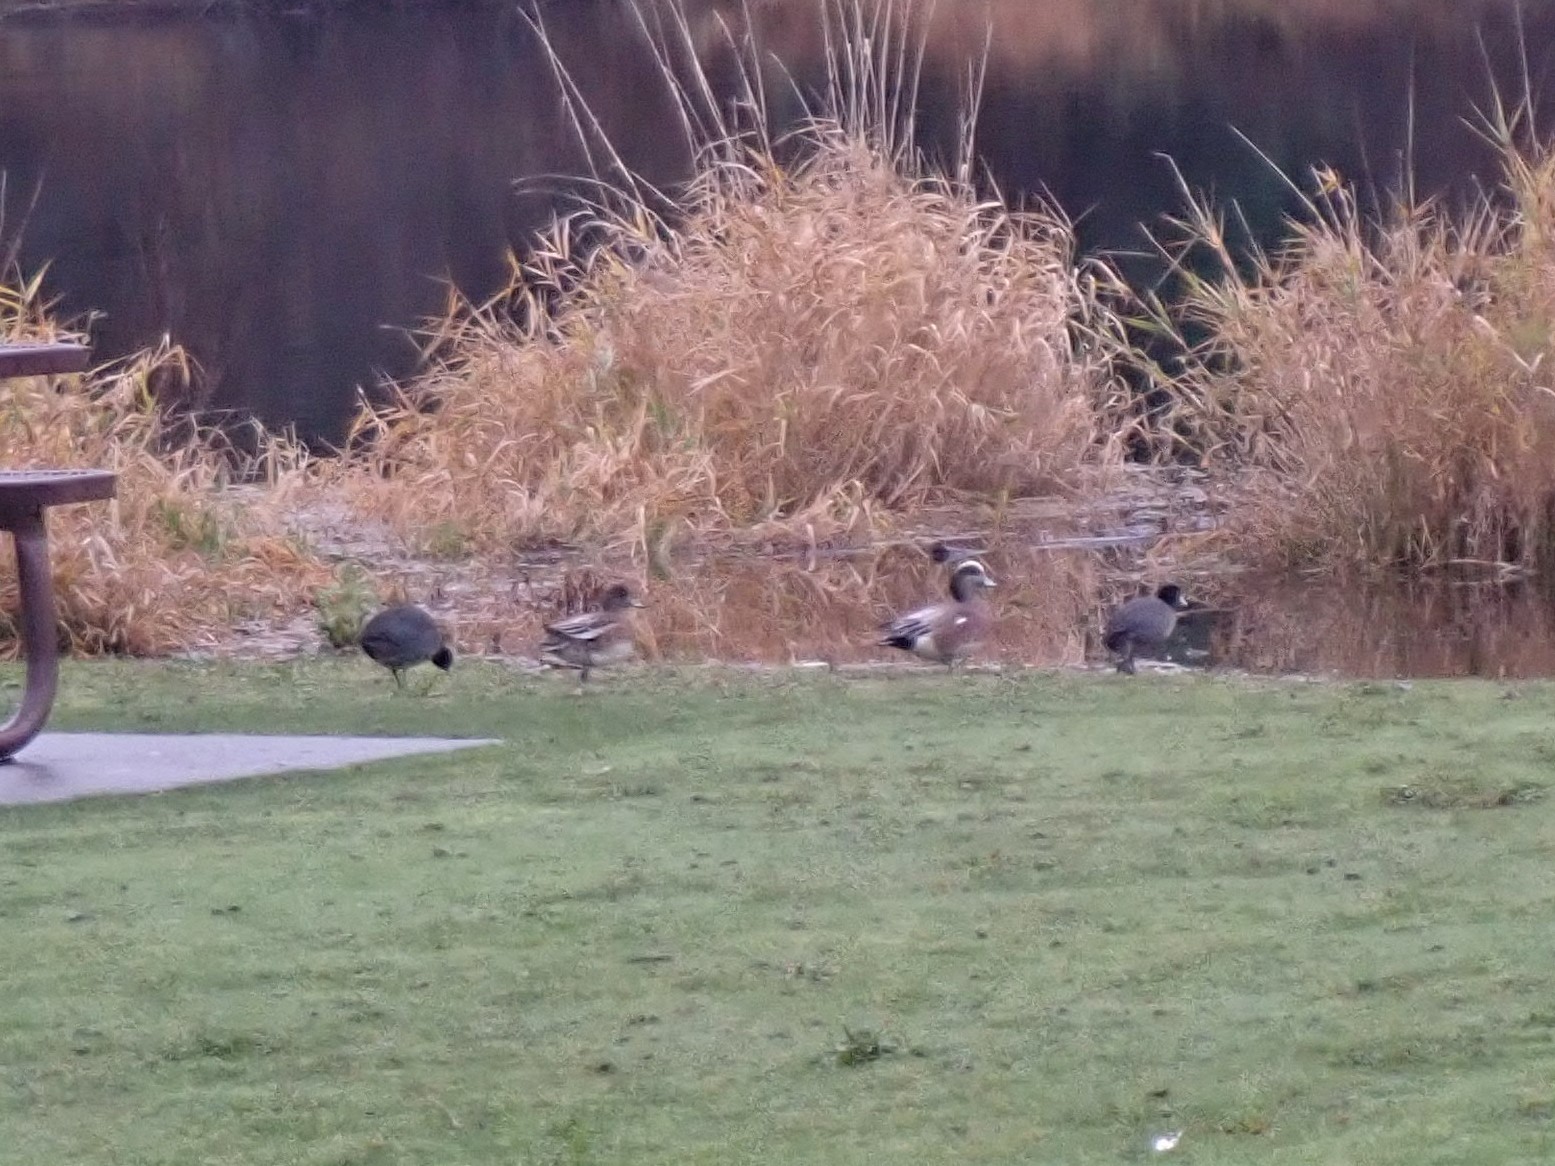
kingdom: Animalia
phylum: Chordata
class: Aves
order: Anseriformes
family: Anatidae
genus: Mareca
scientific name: Mareca americana
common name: American wigeon
